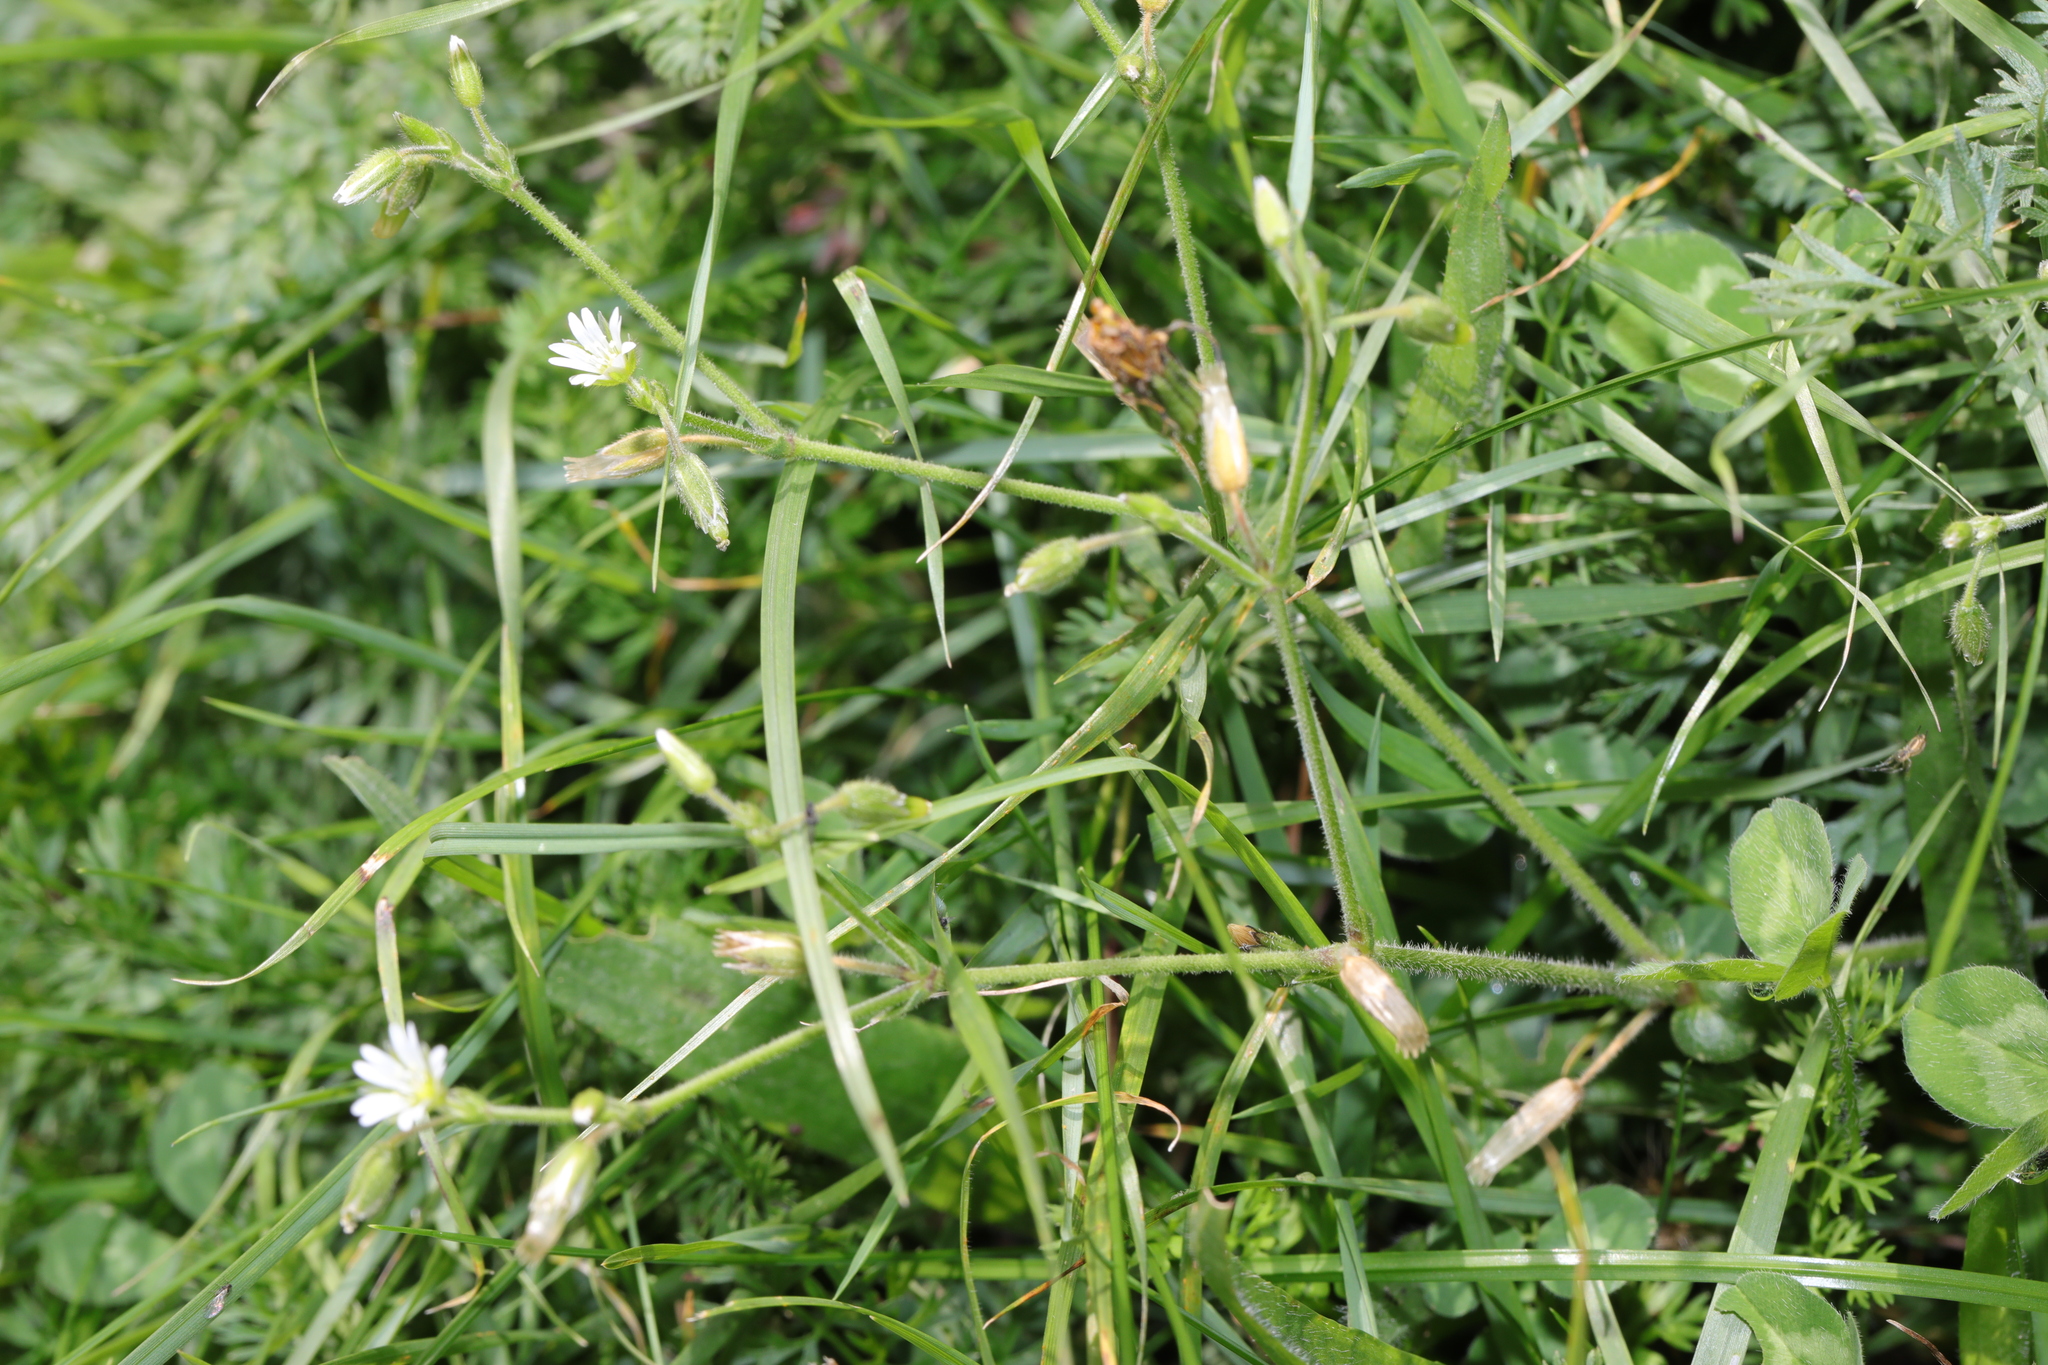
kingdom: Plantae
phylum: Tracheophyta
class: Magnoliopsida
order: Caryophyllales
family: Caryophyllaceae
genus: Cerastium
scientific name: Cerastium fontanum
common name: Common mouse-ear
